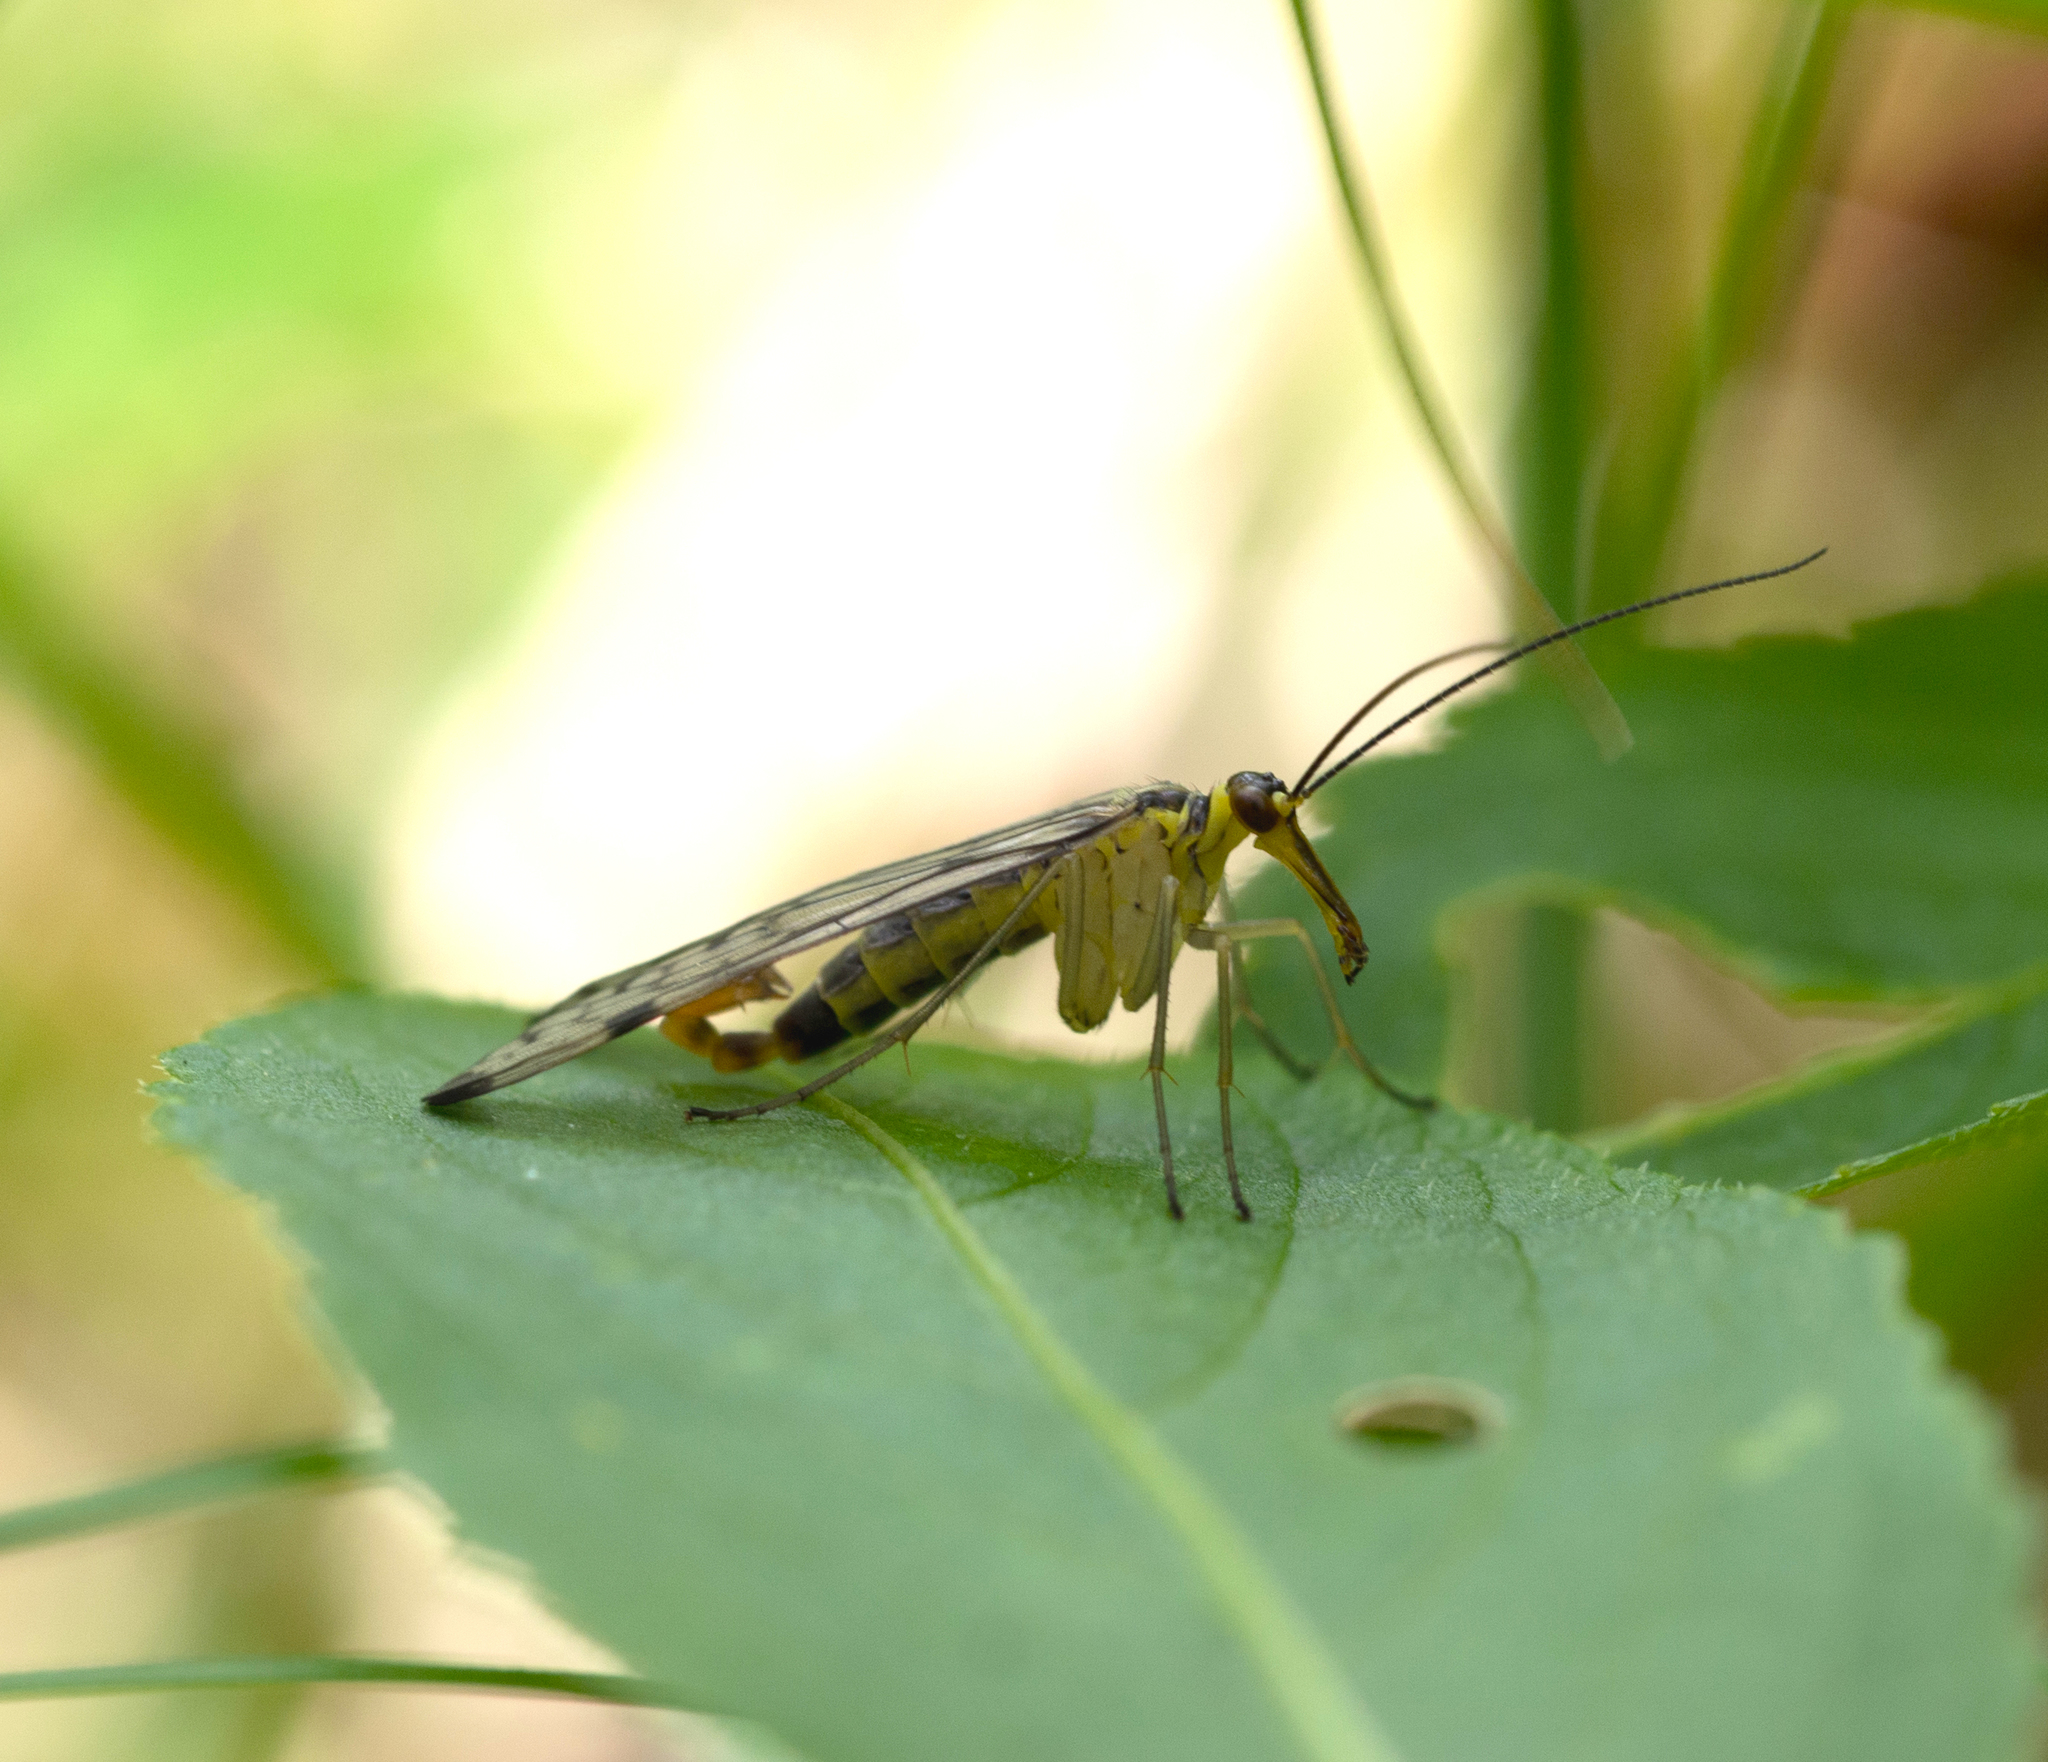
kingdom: Animalia
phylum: Arthropoda
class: Insecta
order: Mecoptera
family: Panorpidae
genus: Panorpa
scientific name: Panorpa germanica
